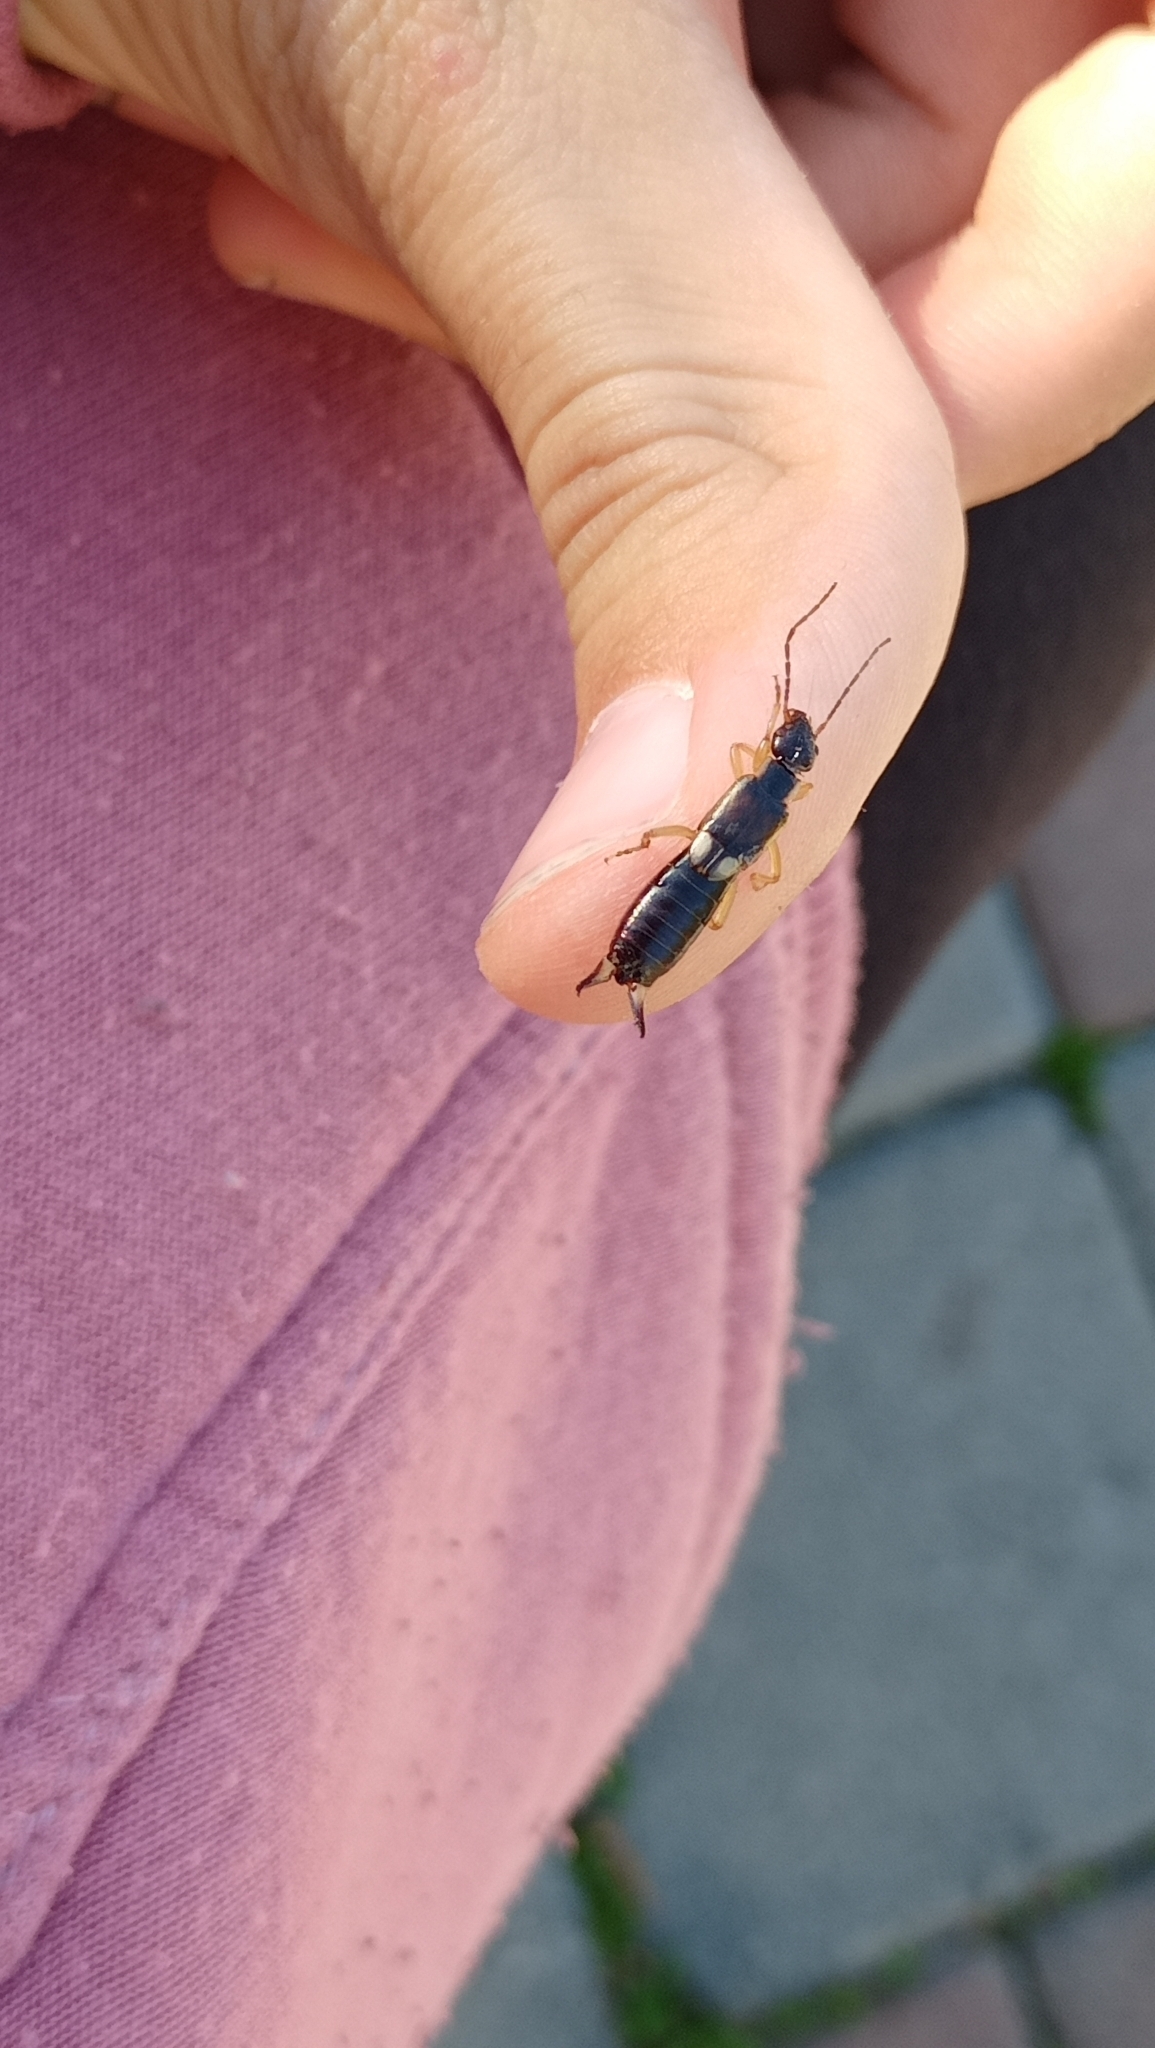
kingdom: Animalia
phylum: Arthropoda
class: Insecta
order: Dermaptera
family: Forficulidae
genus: Forficula
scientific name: Forficula lurida
